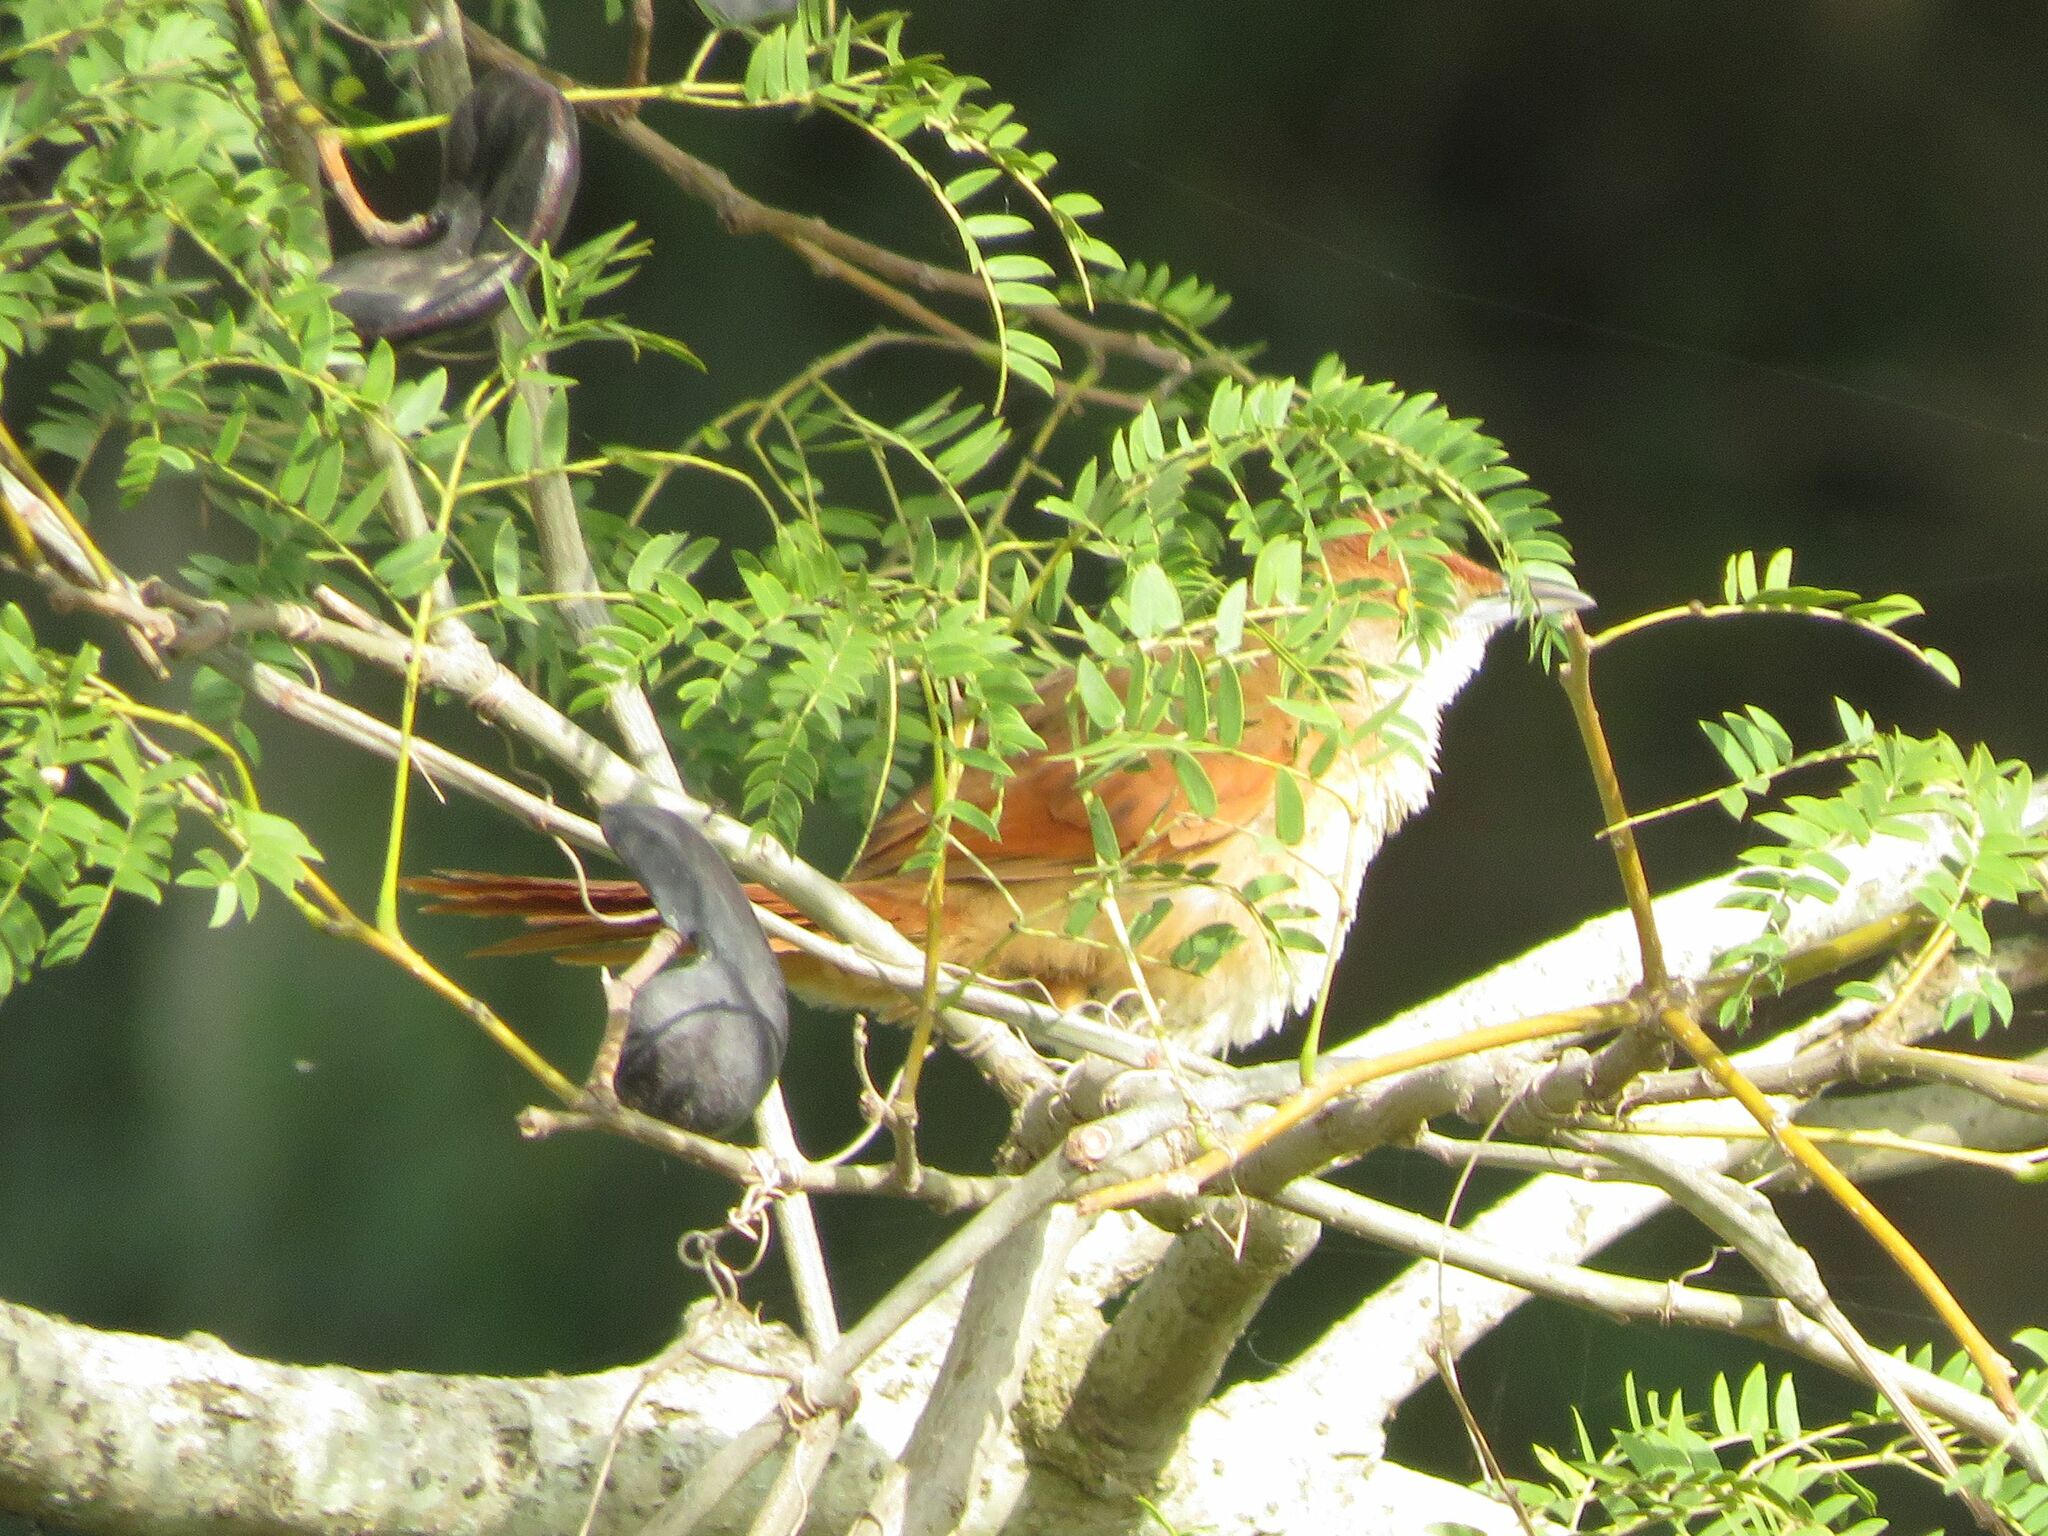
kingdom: Animalia
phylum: Chordata
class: Aves
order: Passeriformes
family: Furnariidae
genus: Phacellodomus
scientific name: Phacellodomus ruber
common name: Greater thornbird
